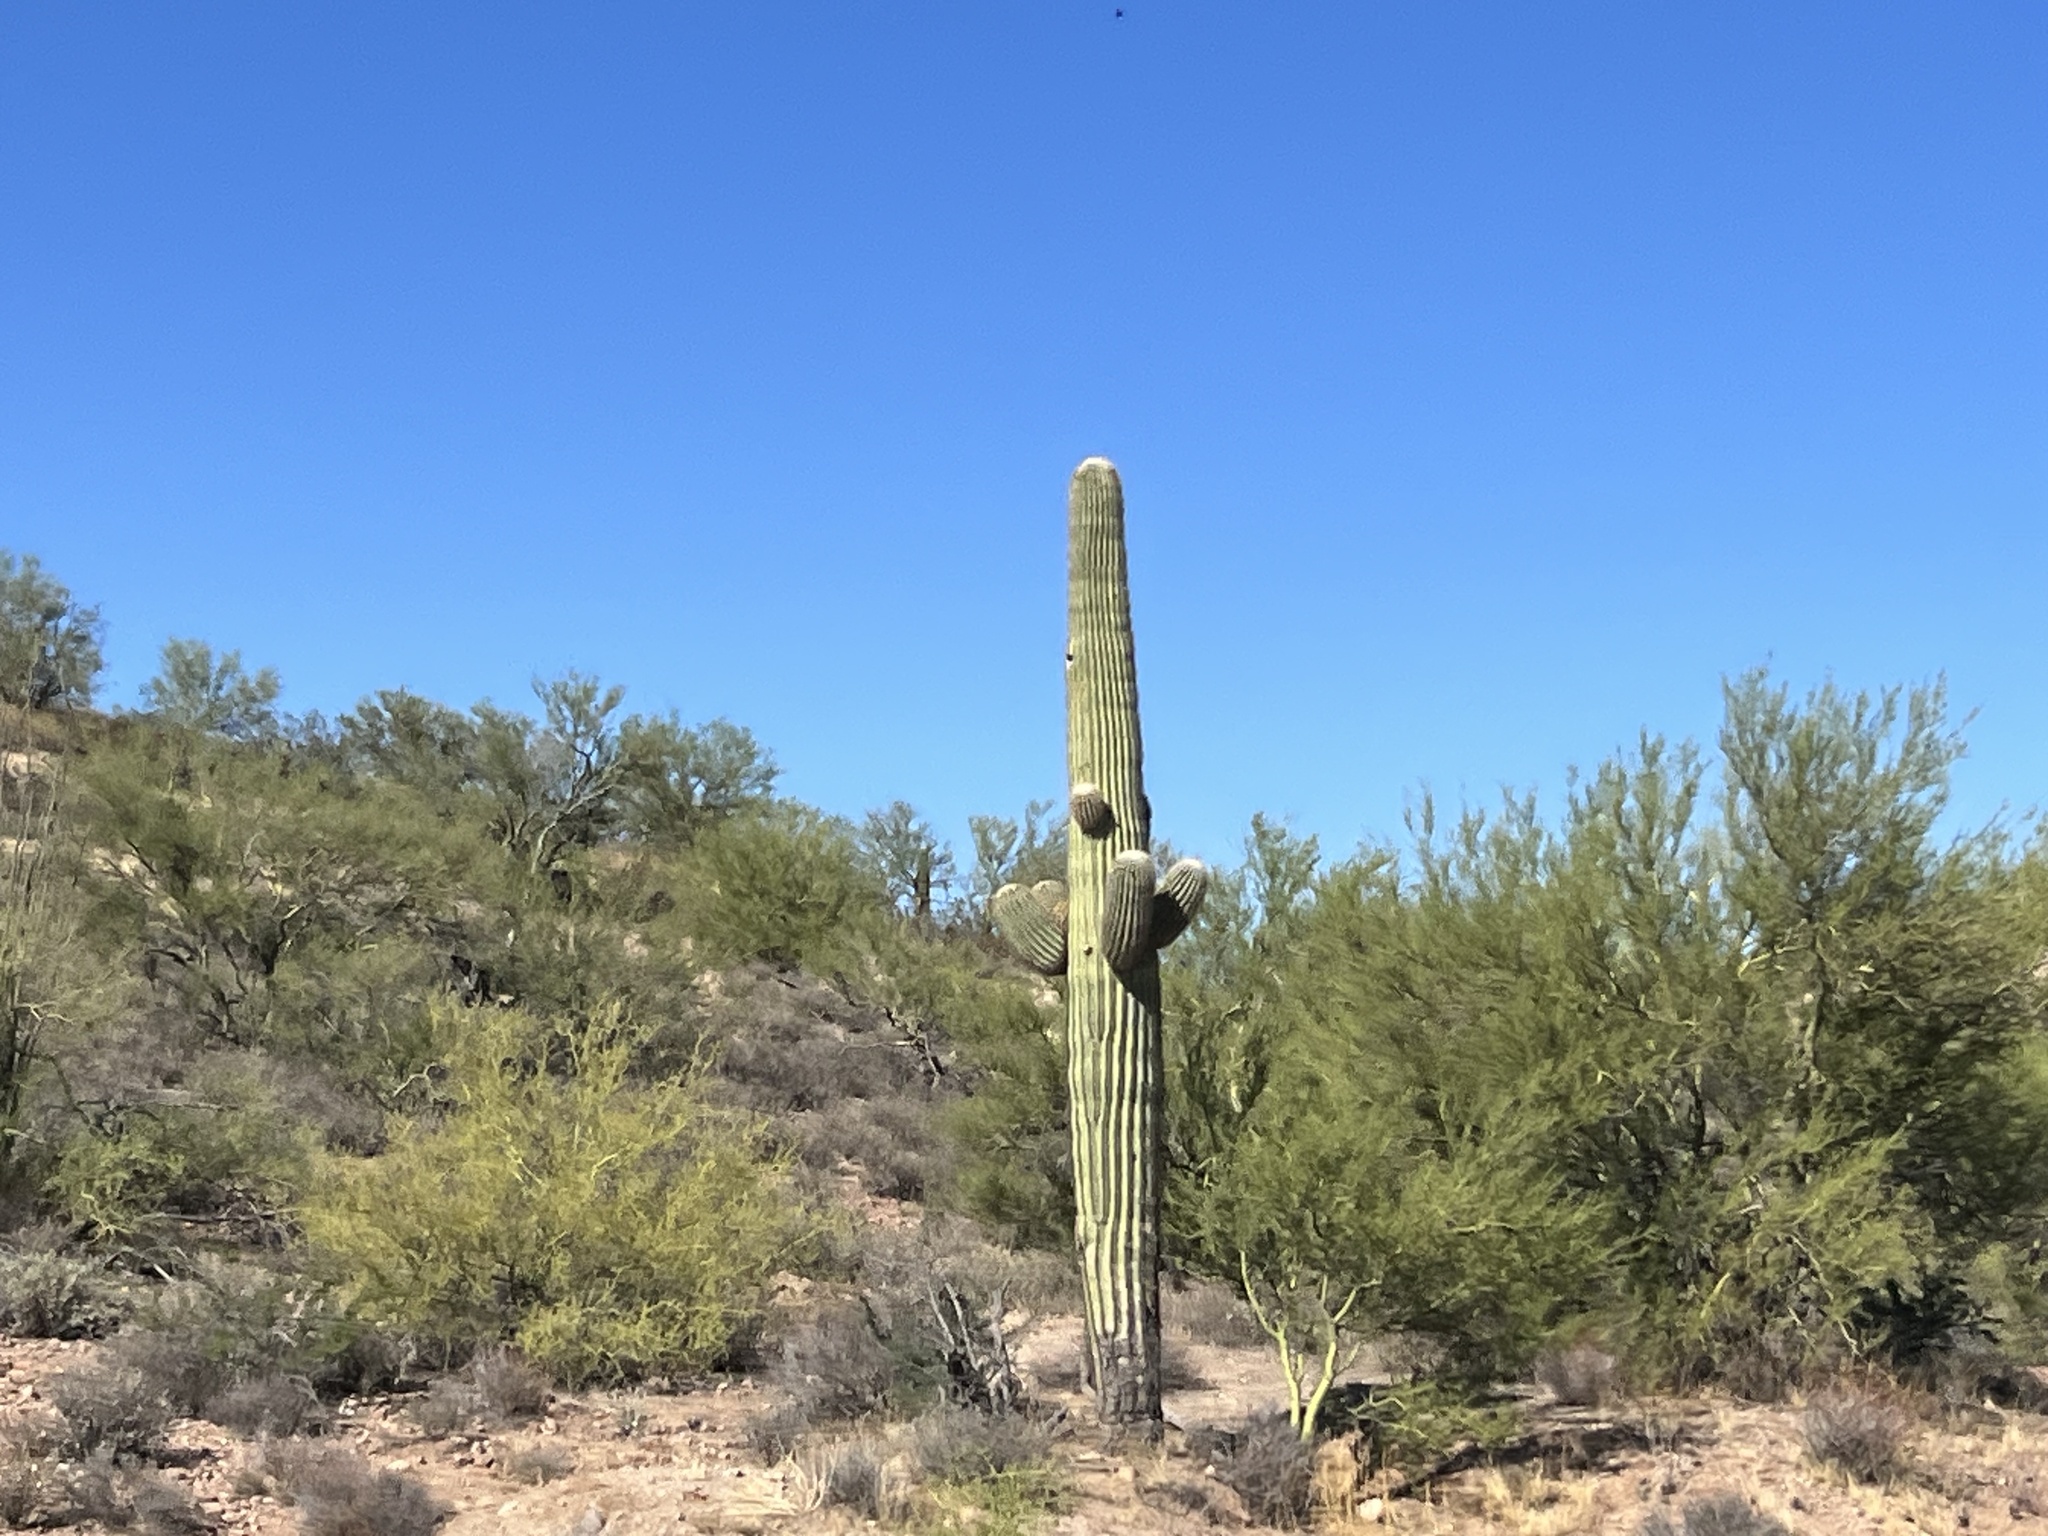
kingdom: Plantae
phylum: Tracheophyta
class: Magnoliopsida
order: Caryophyllales
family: Cactaceae
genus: Carnegiea
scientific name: Carnegiea gigantea
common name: Saguaro
